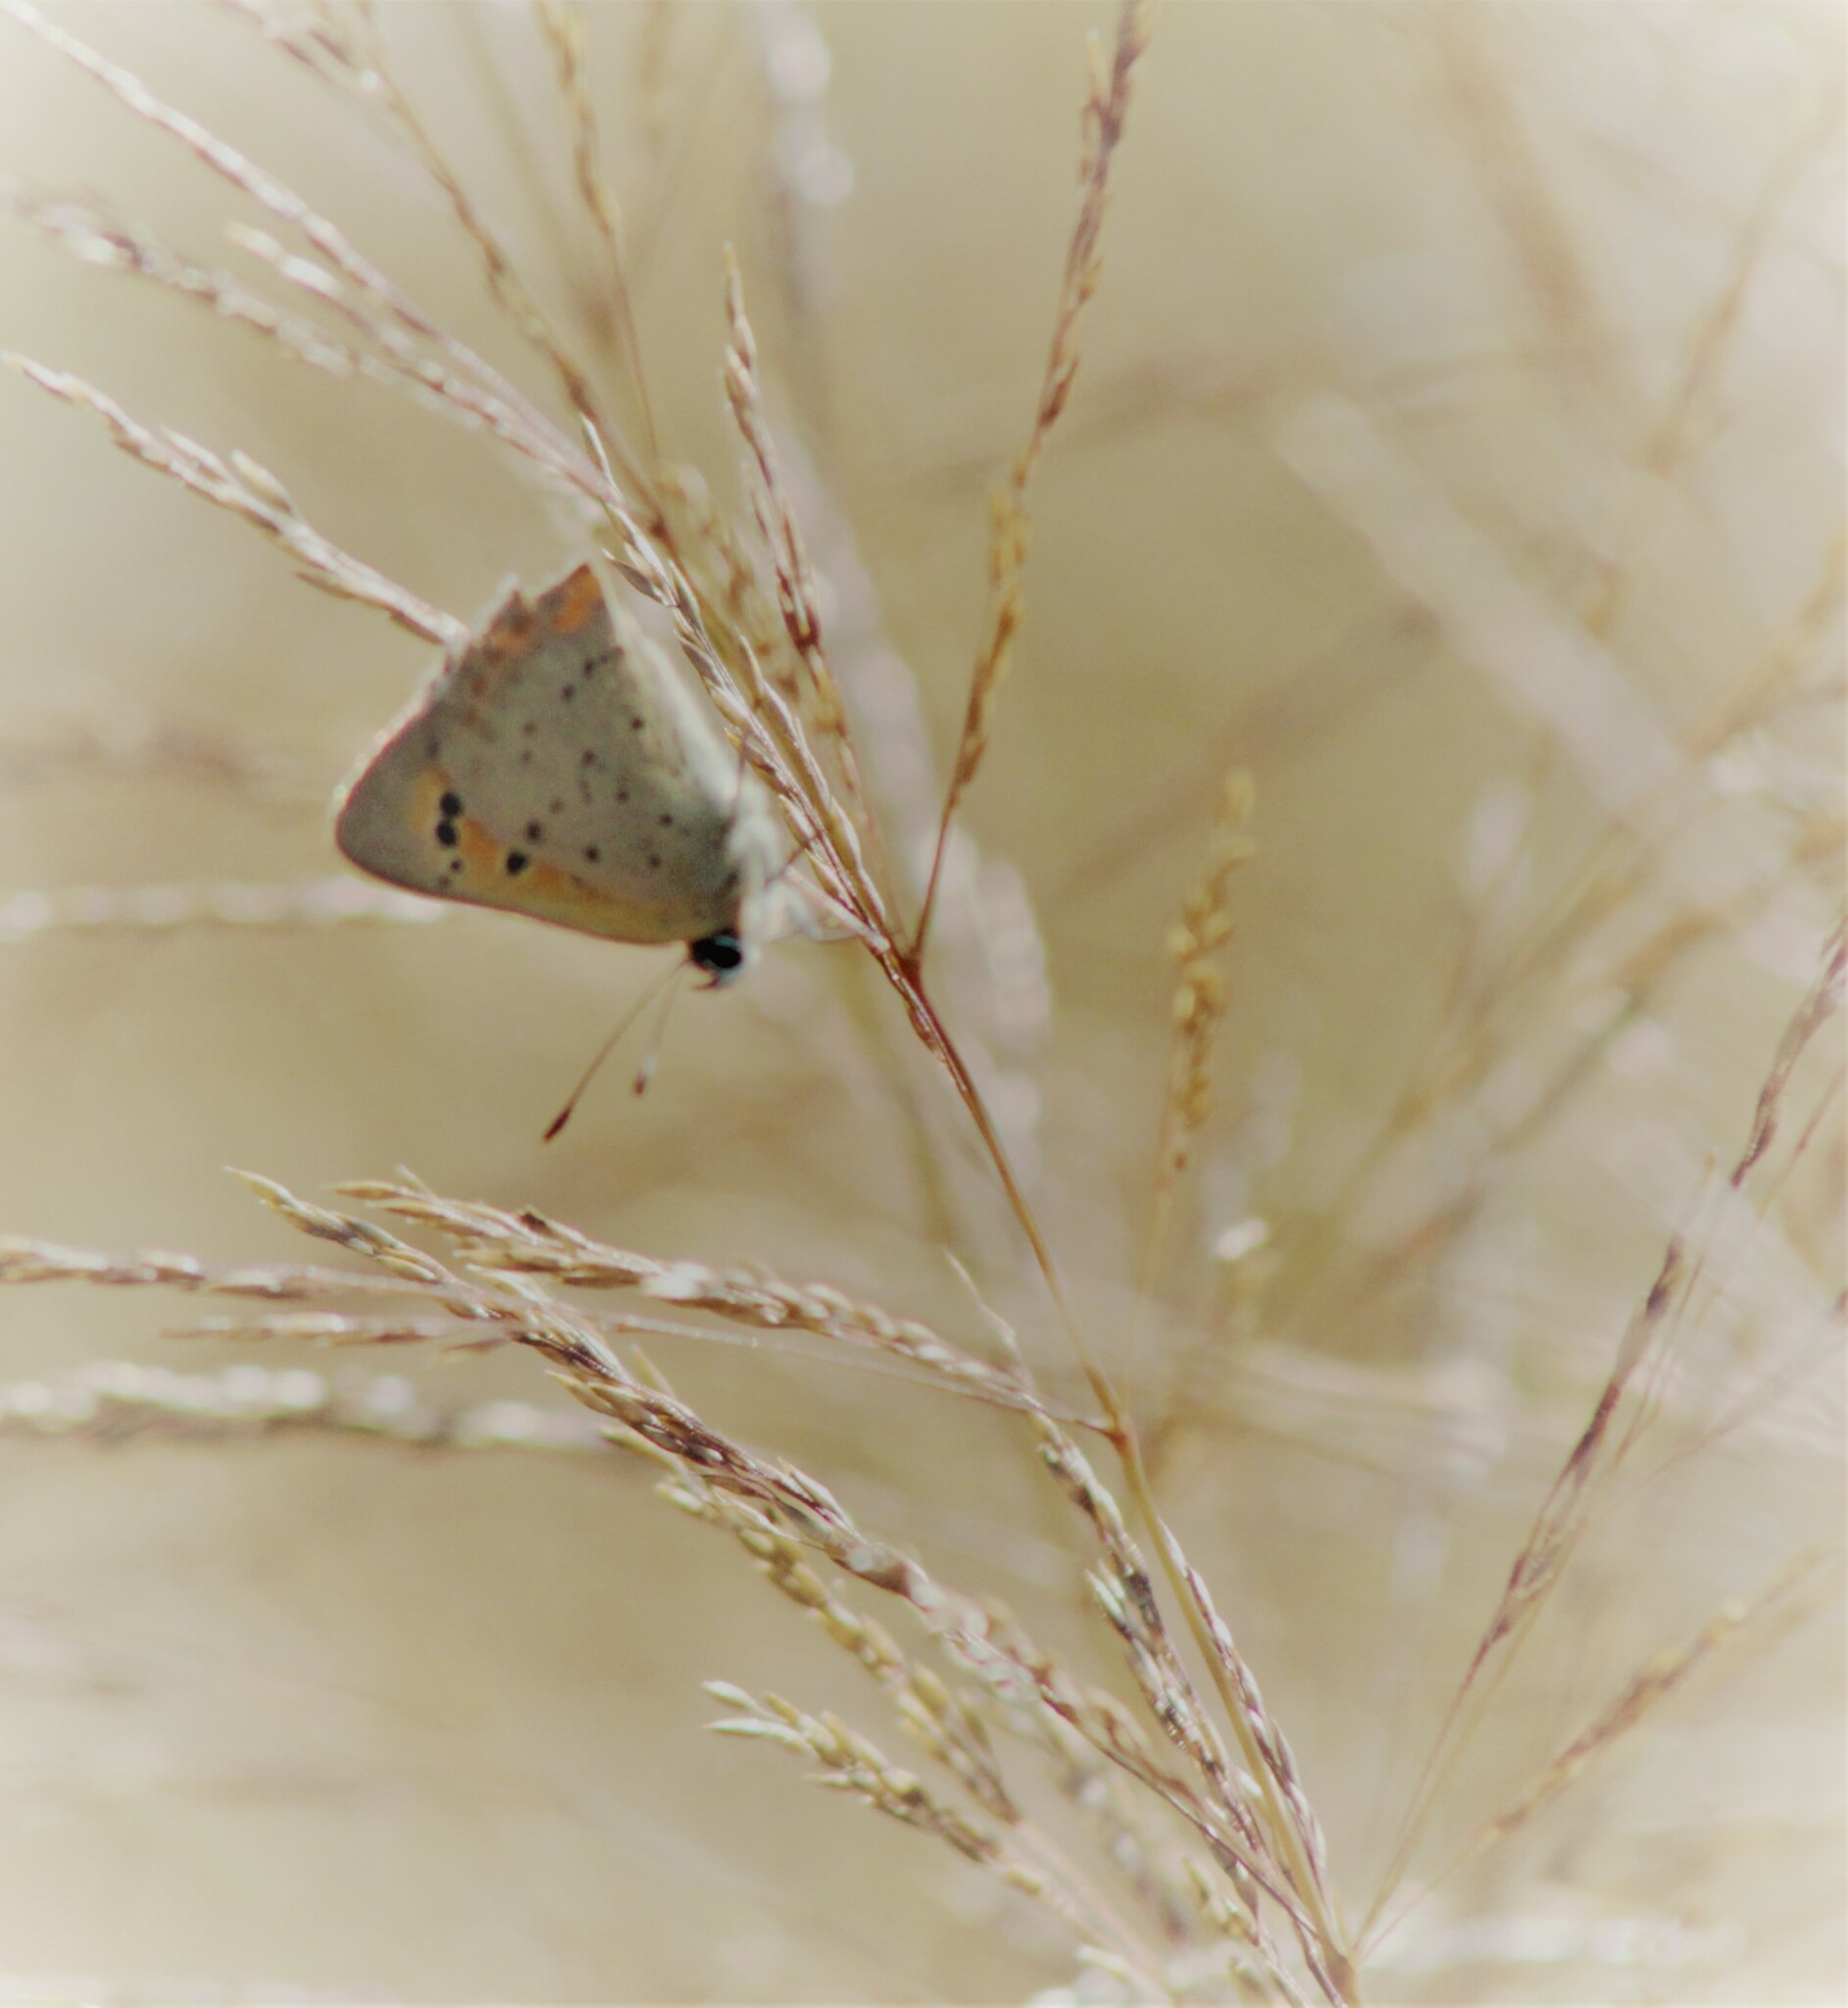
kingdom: Animalia
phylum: Arthropoda
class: Insecta
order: Lepidoptera
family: Lycaenidae
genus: Lycaena
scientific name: Lycaena phlaeas
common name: Small copper
